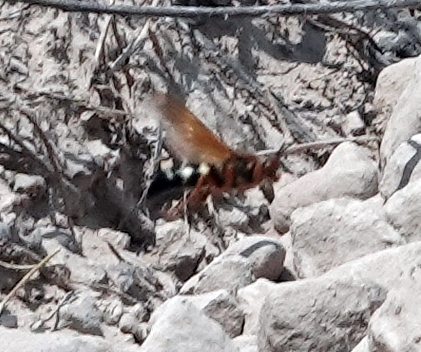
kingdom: Animalia
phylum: Arthropoda
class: Insecta
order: Hymenoptera
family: Crabronidae
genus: Sphecius
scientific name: Sphecius speciosus
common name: Cicada killer
